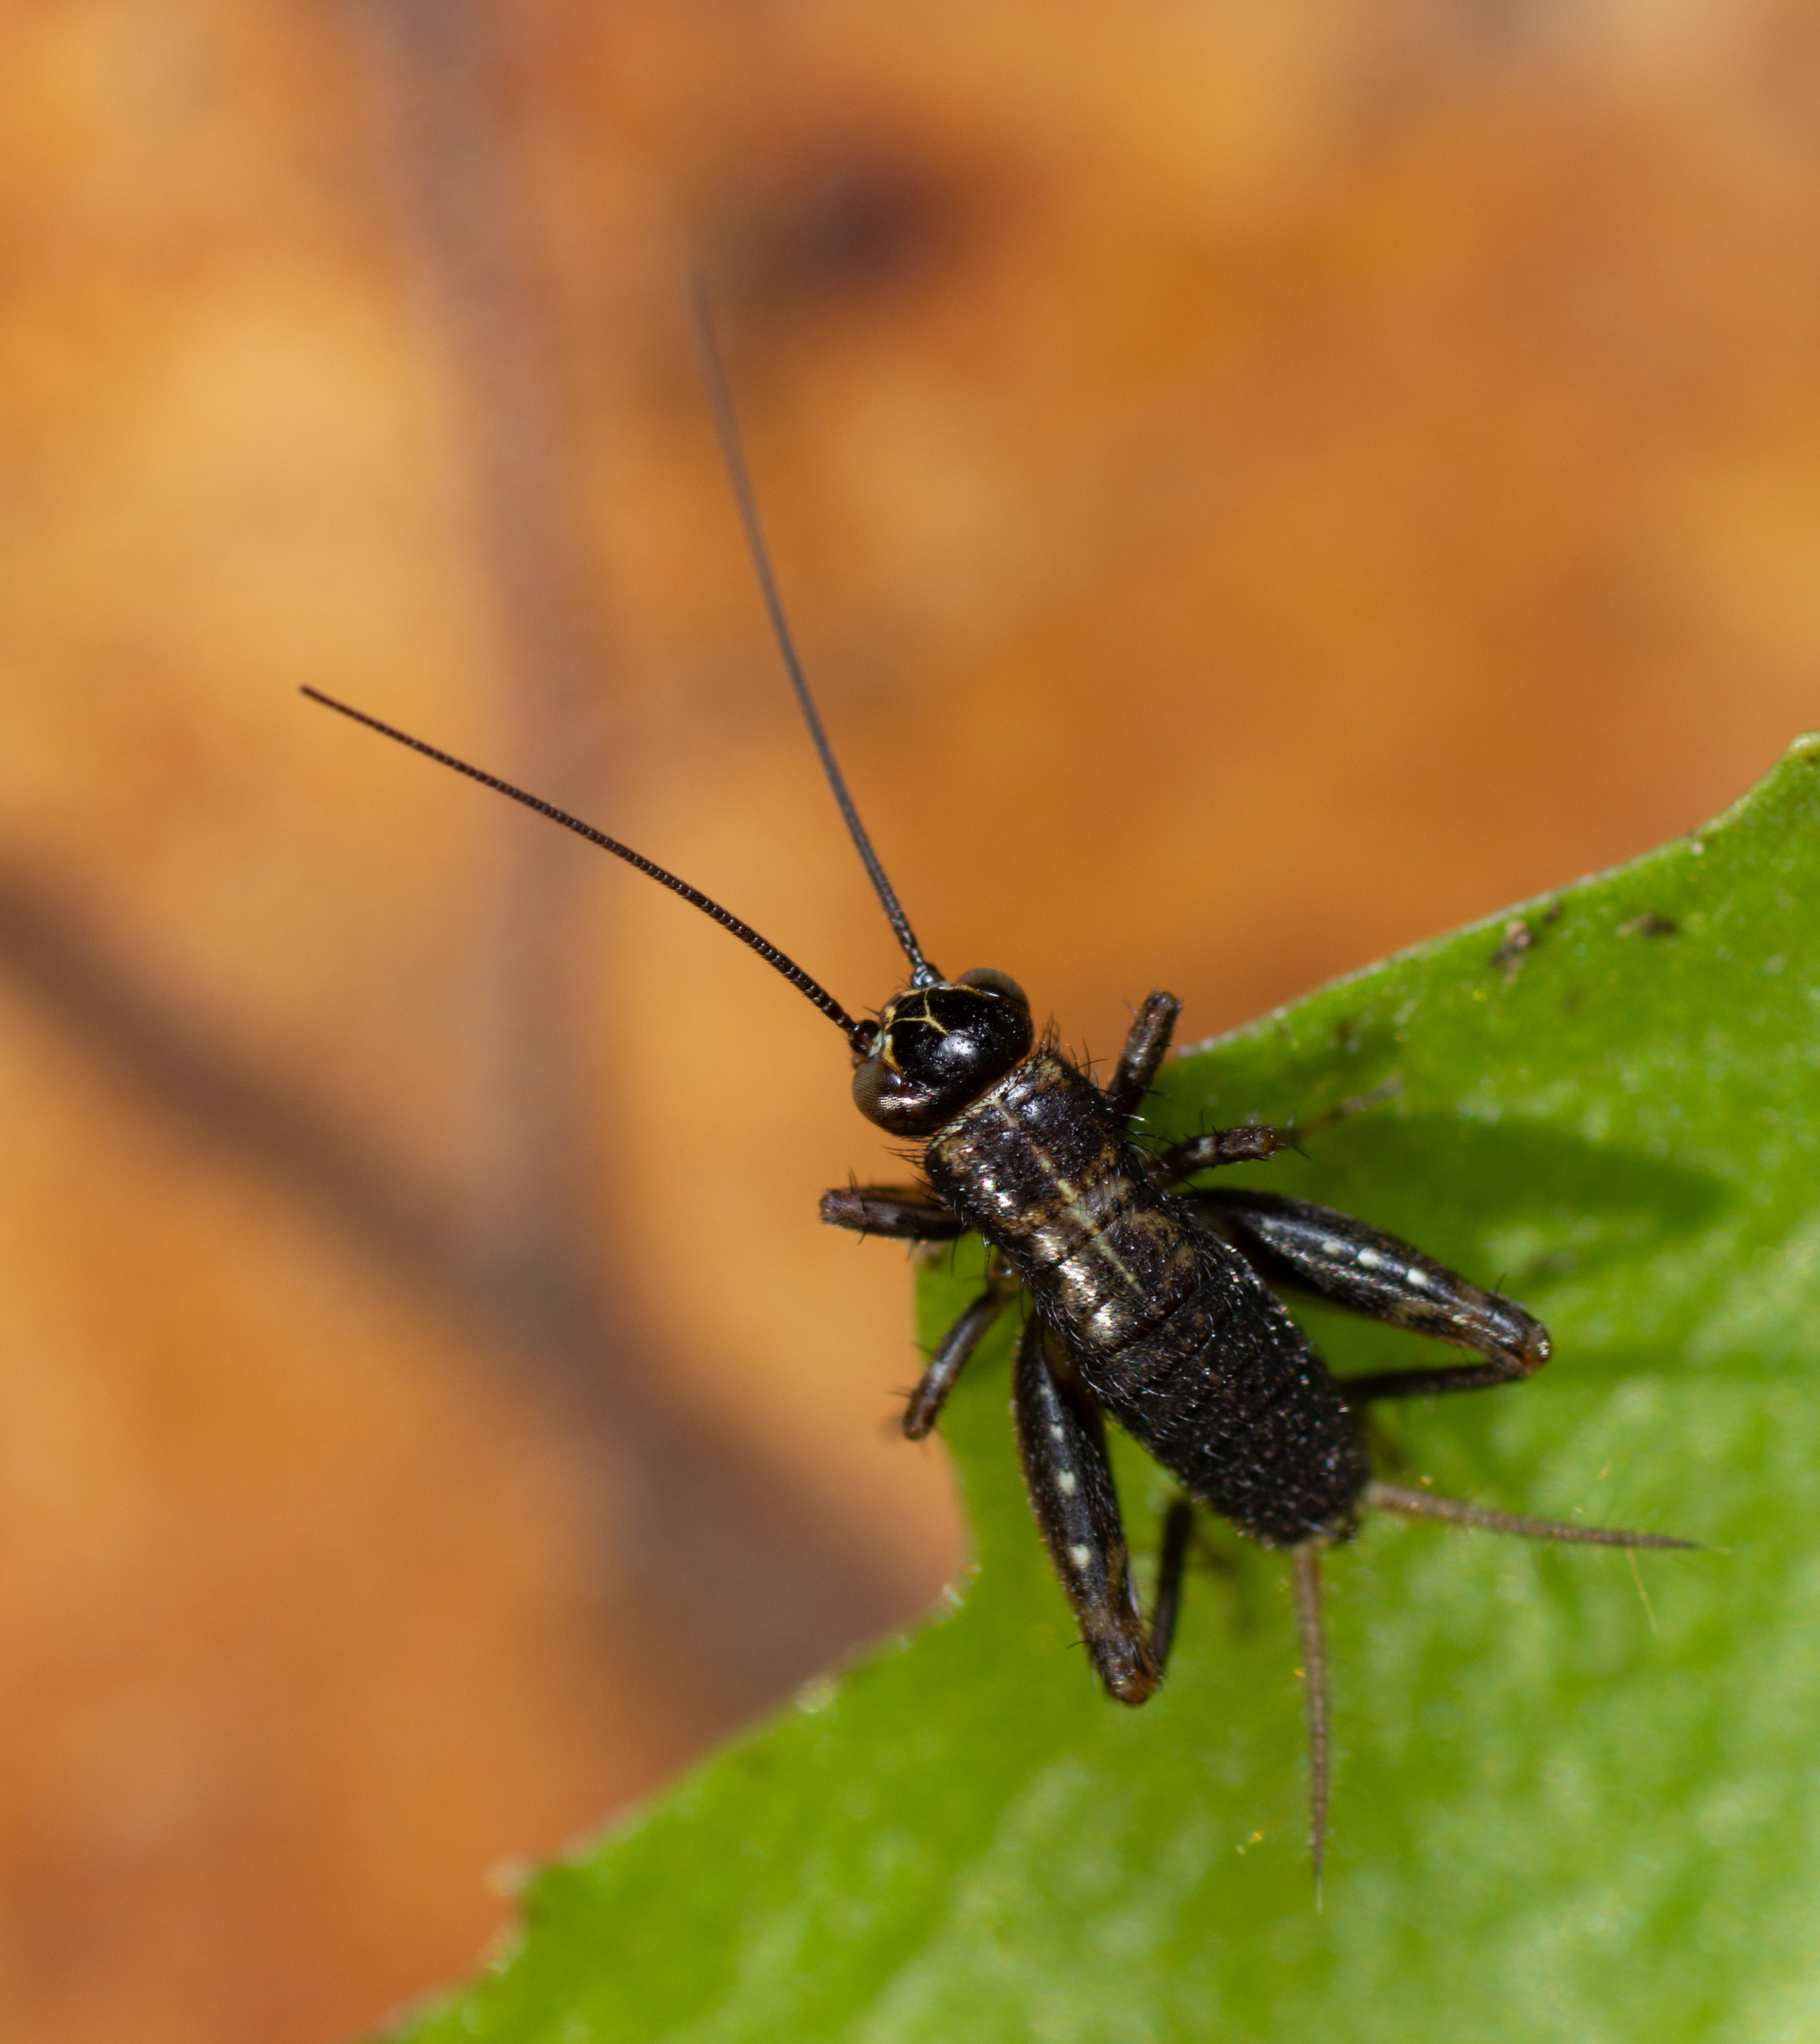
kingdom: Animalia
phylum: Arthropoda
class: Insecta
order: Orthoptera
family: Trigonidiidae
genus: Nemobius
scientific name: Nemobius sylvestris
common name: Wood-cricket
